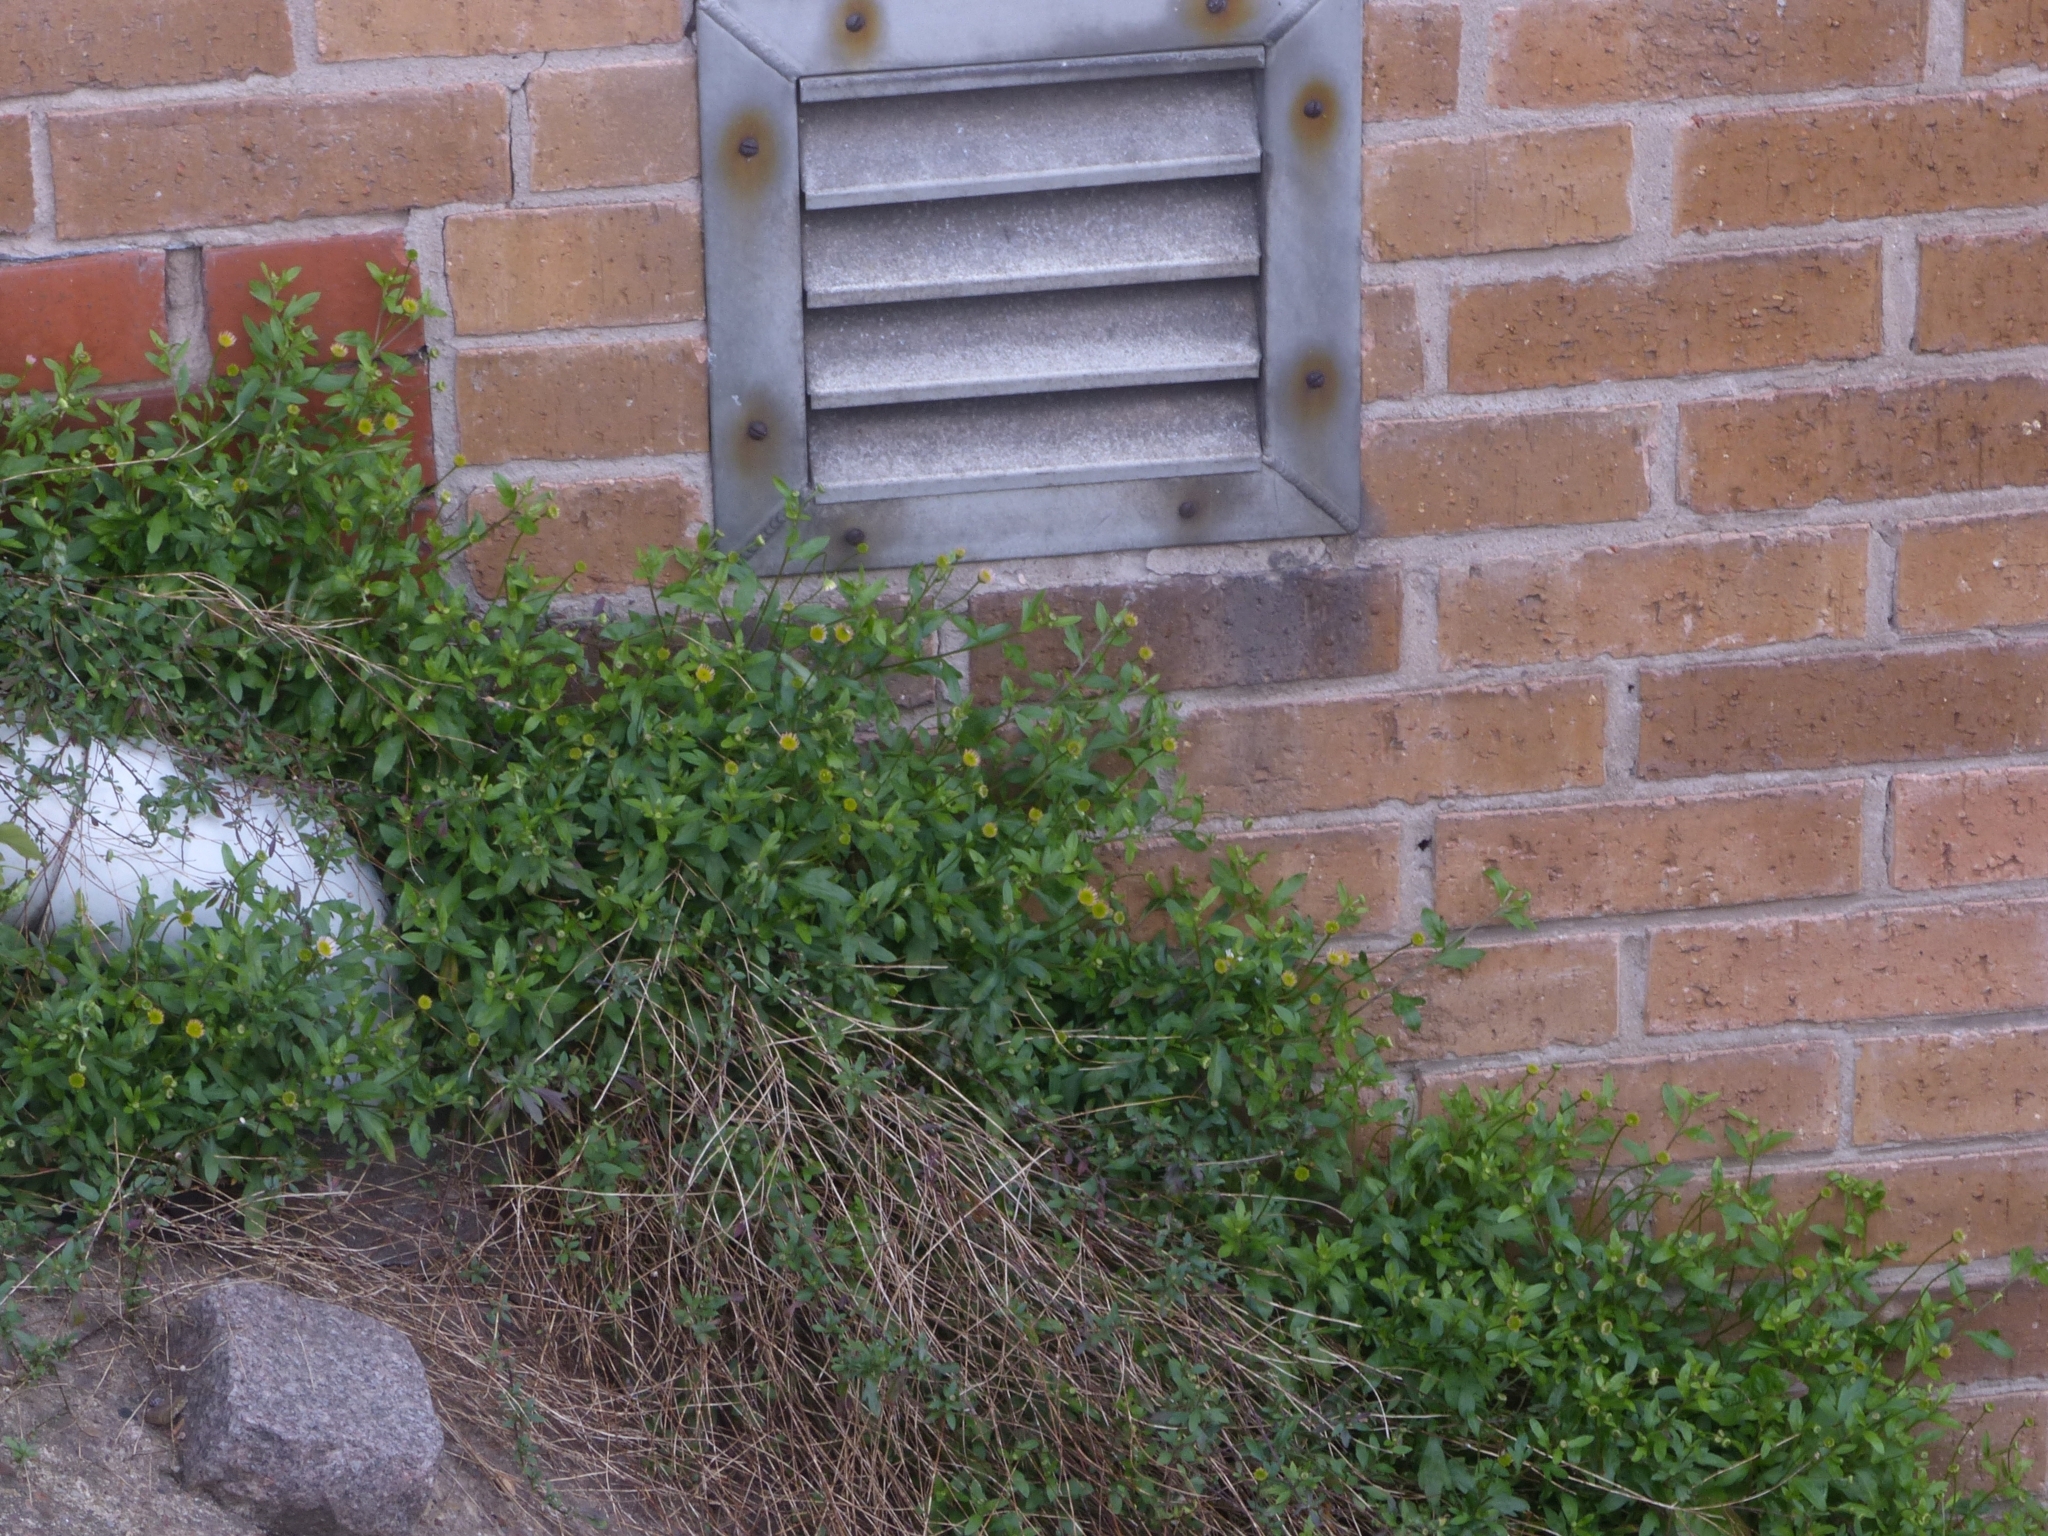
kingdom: Plantae
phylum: Tracheophyta
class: Magnoliopsida
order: Asterales
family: Asteraceae
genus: Erigeron
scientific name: Erigeron karvinskianus
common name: Mexican fleabane
